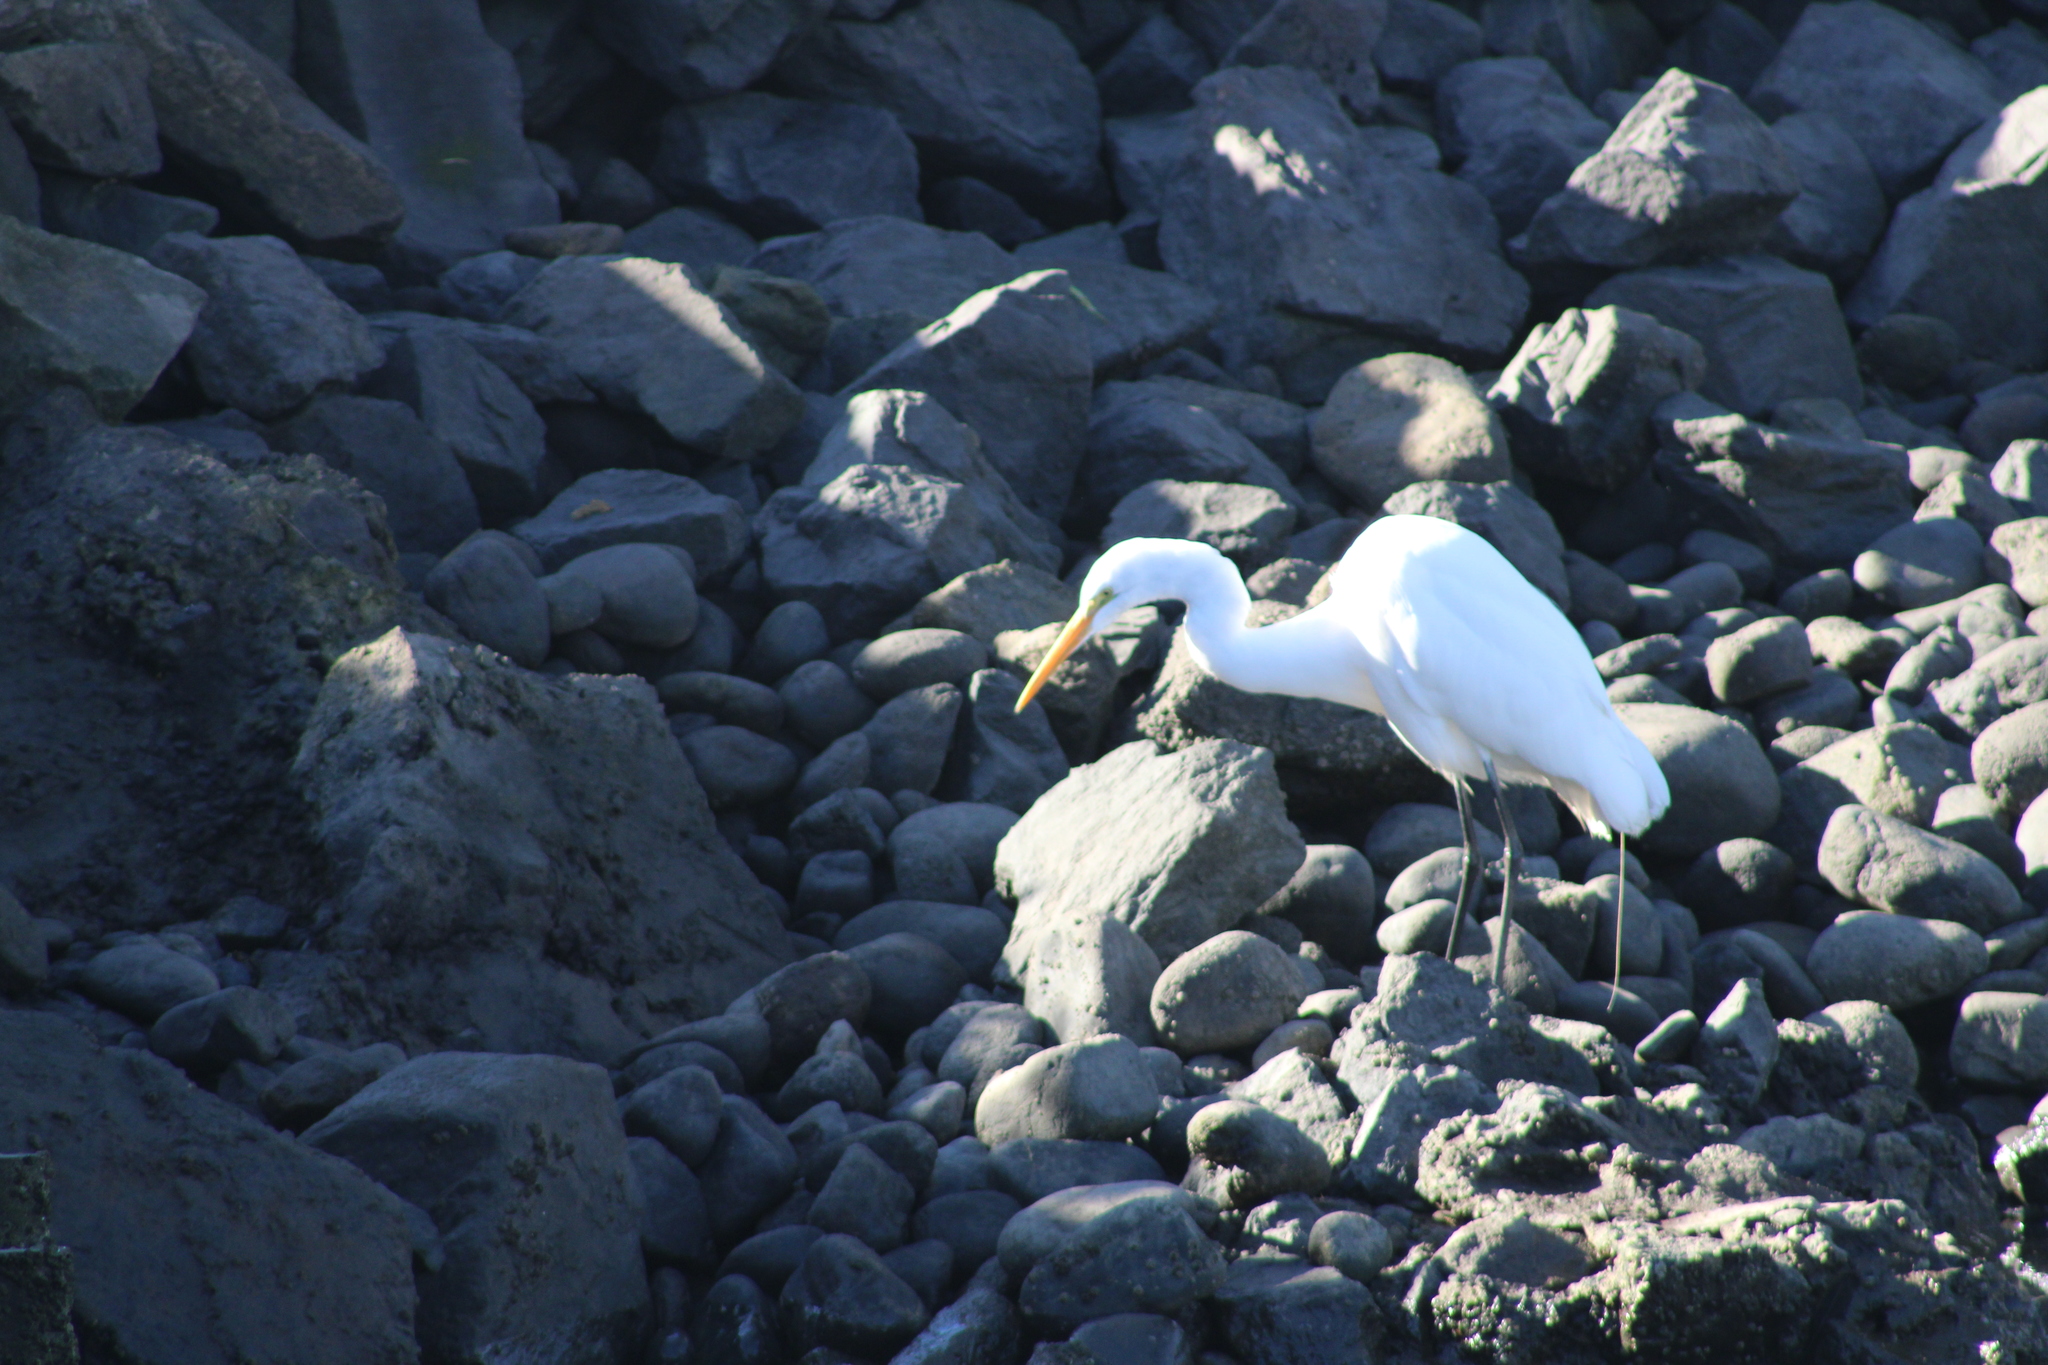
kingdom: Animalia
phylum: Chordata
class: Aves
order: Pelecaniformes
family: Ardeidae
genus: Ardea
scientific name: Ardea alba
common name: Great egret
